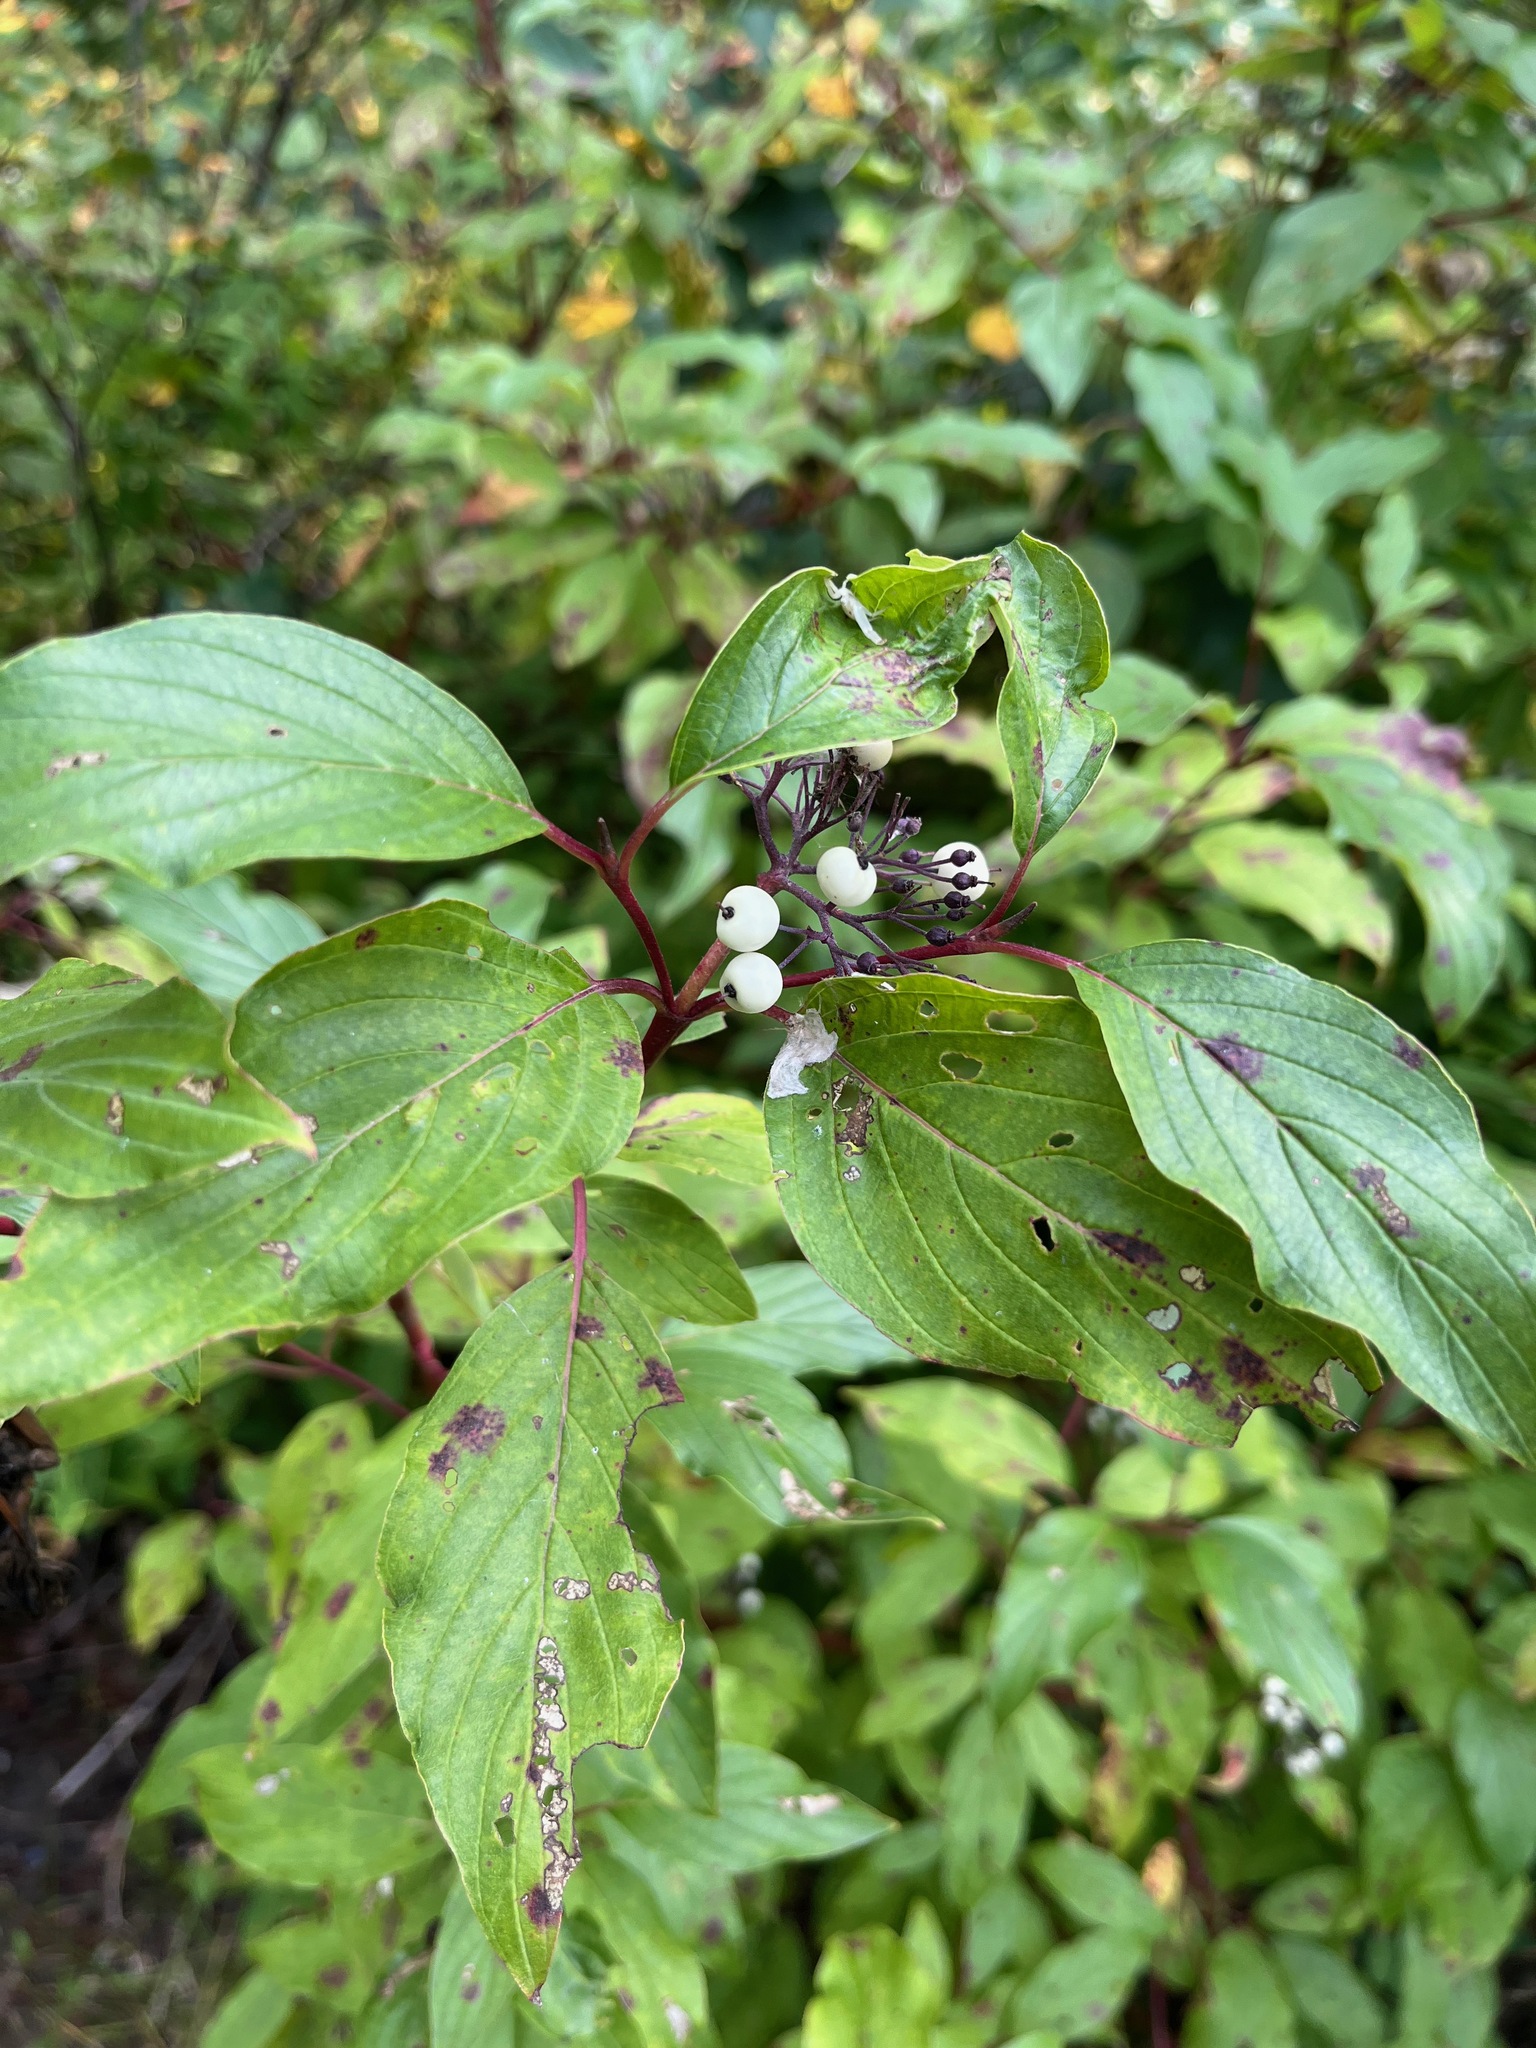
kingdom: Plantae
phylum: Tracheophyta
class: Magnoliopsida
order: Cornales
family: Cornaceae
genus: Cornus
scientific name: Cornus sericea
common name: Red-osier dogwood
